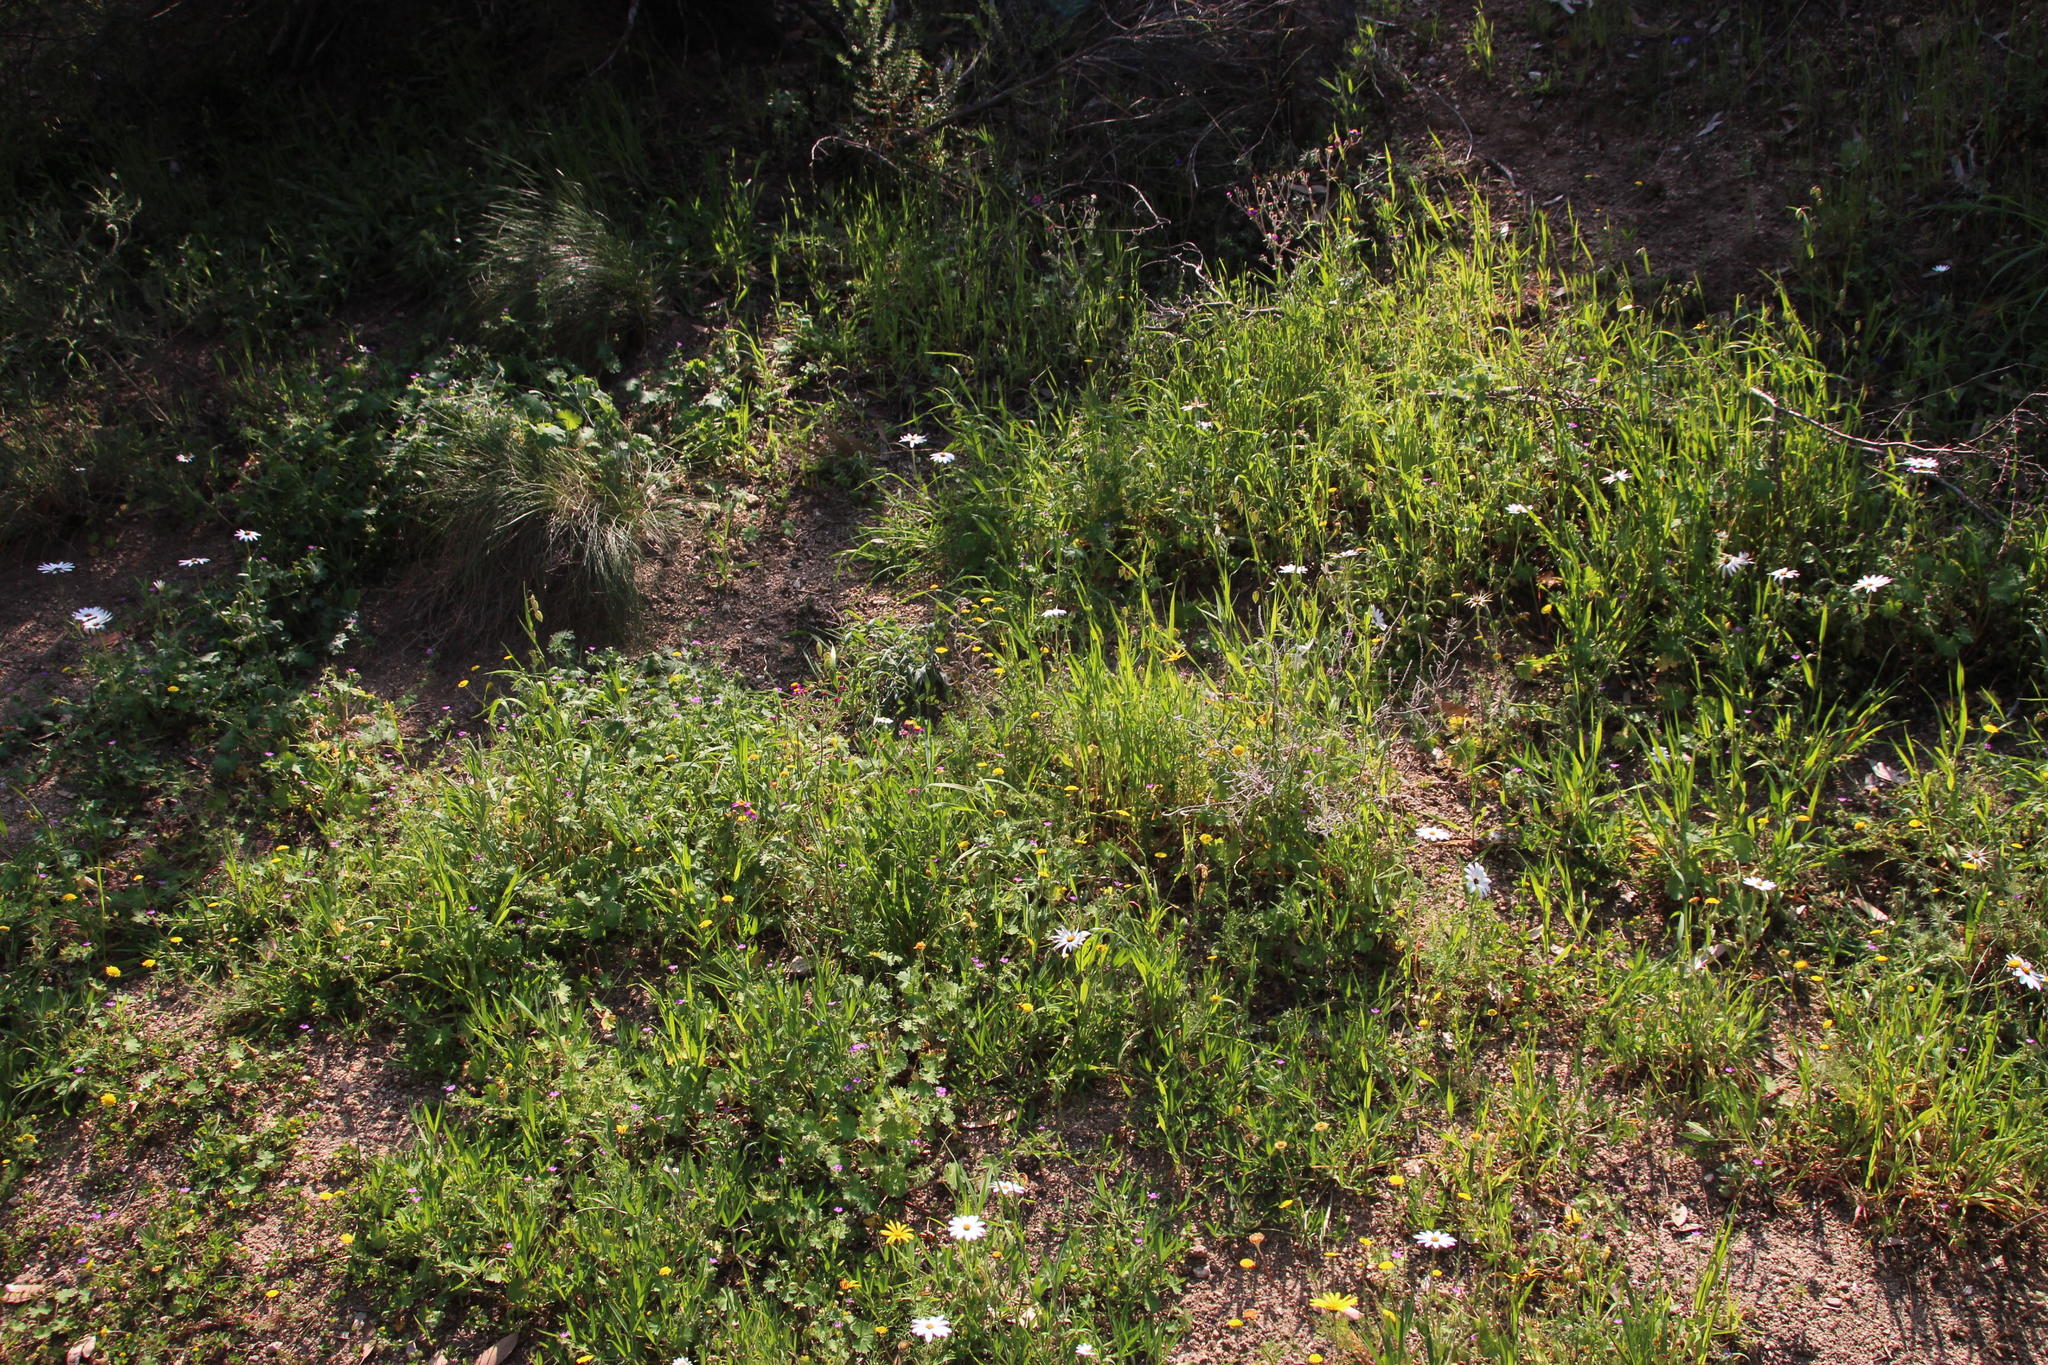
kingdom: Plantae
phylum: Tracheophyta
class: Magnoliopsida
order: Asterales
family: Asteraceae
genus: Cotula
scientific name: Cotula pruinosa
